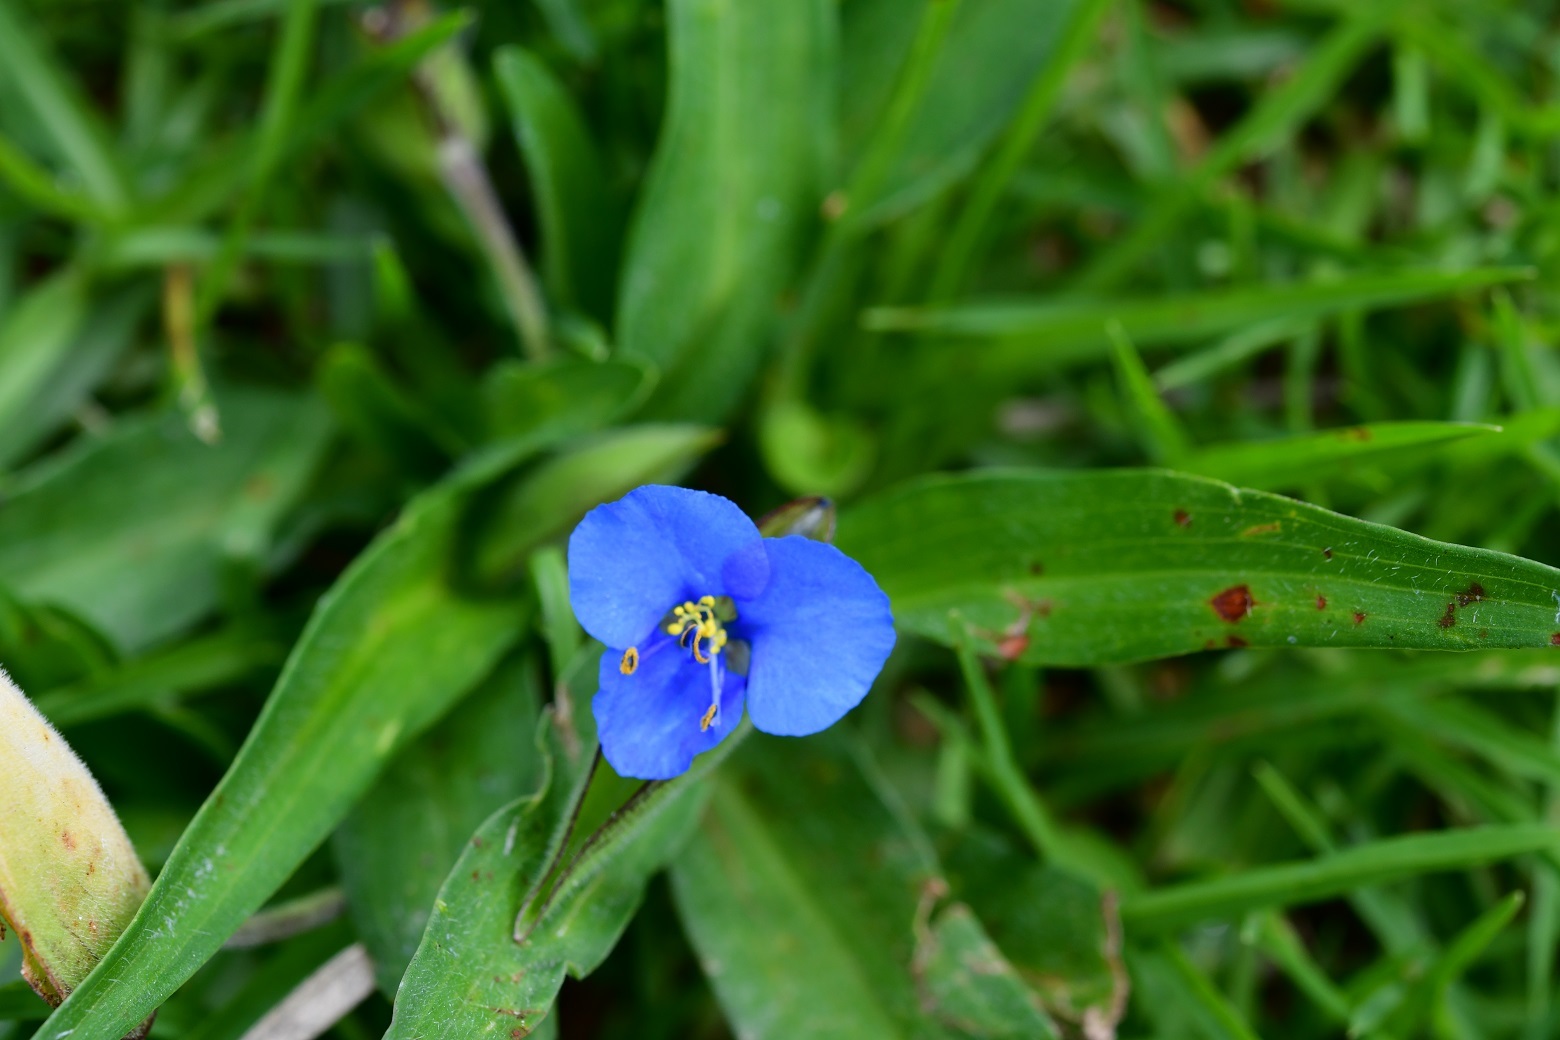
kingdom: Plantae
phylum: Tracheophyta
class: Liliopsida
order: Commelinales
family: Commelinaceae
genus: Commelina
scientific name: Commelina tuberosa
